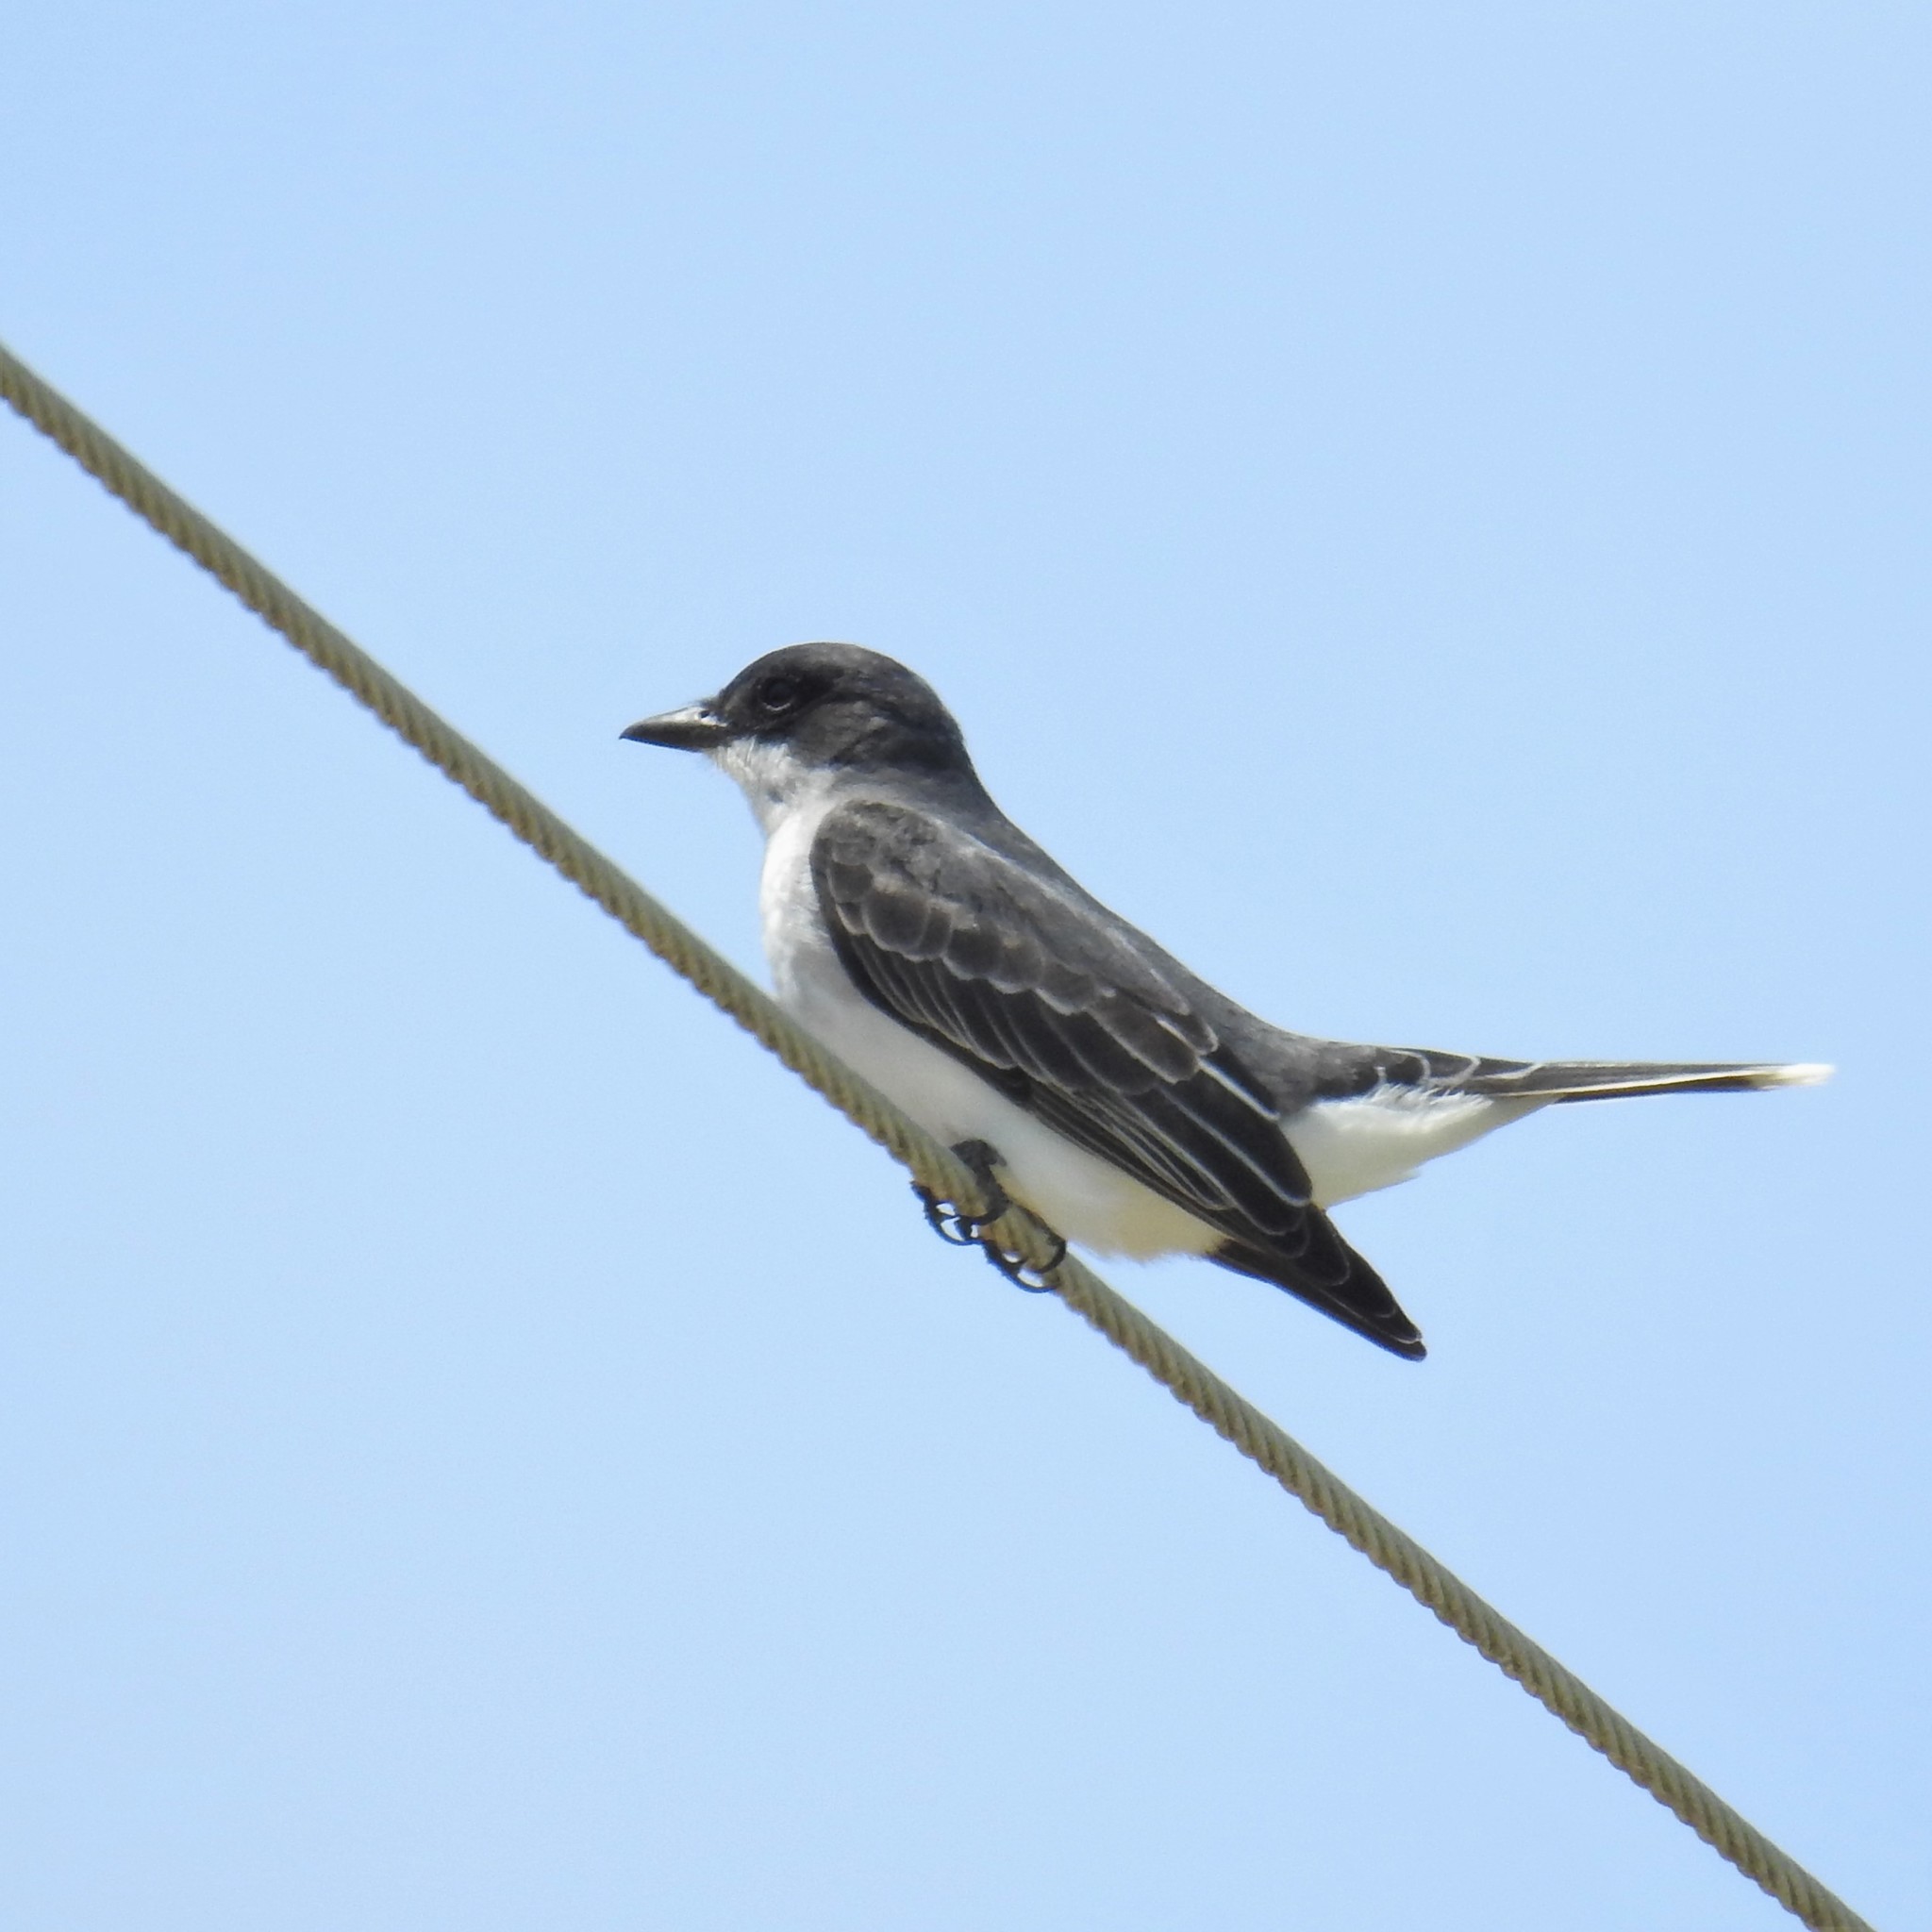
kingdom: Animalia
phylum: Chordata
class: Aves
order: Passeriformes
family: Tyrannidae
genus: Tyrannus
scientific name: Tyrannus tyrannus
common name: Eastern kingbird
